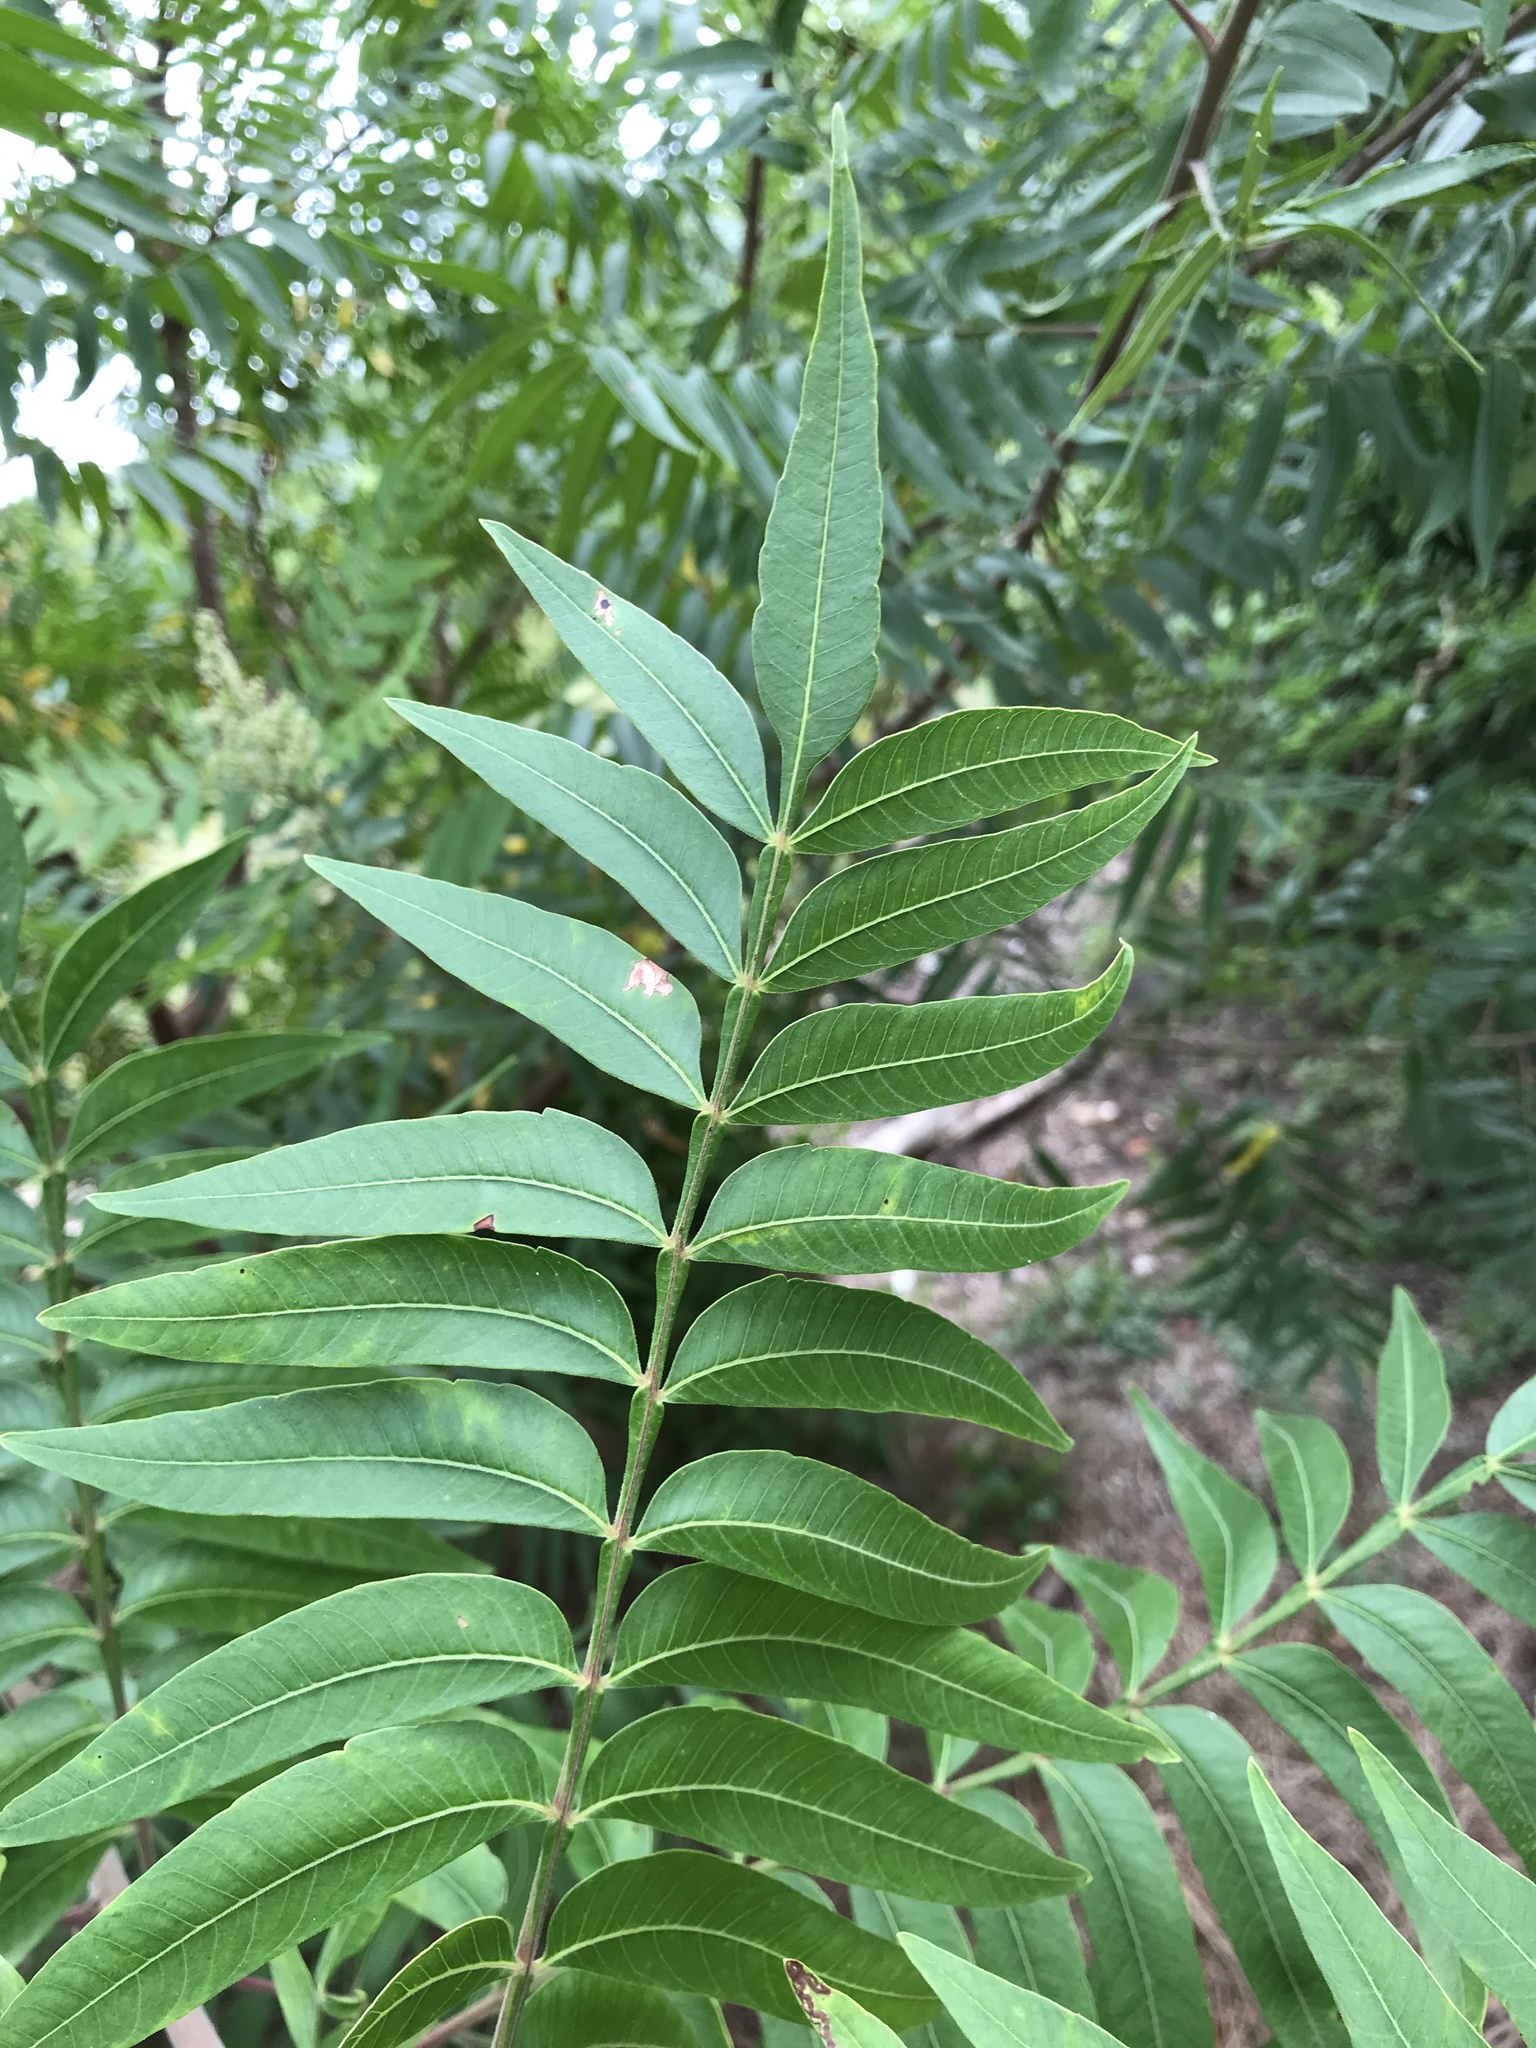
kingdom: Plantae
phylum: Tracheophyta
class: Magnoliopsida
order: Sapindales
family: Anacardiaceae
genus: Rhus
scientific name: Rhus lanceolata
